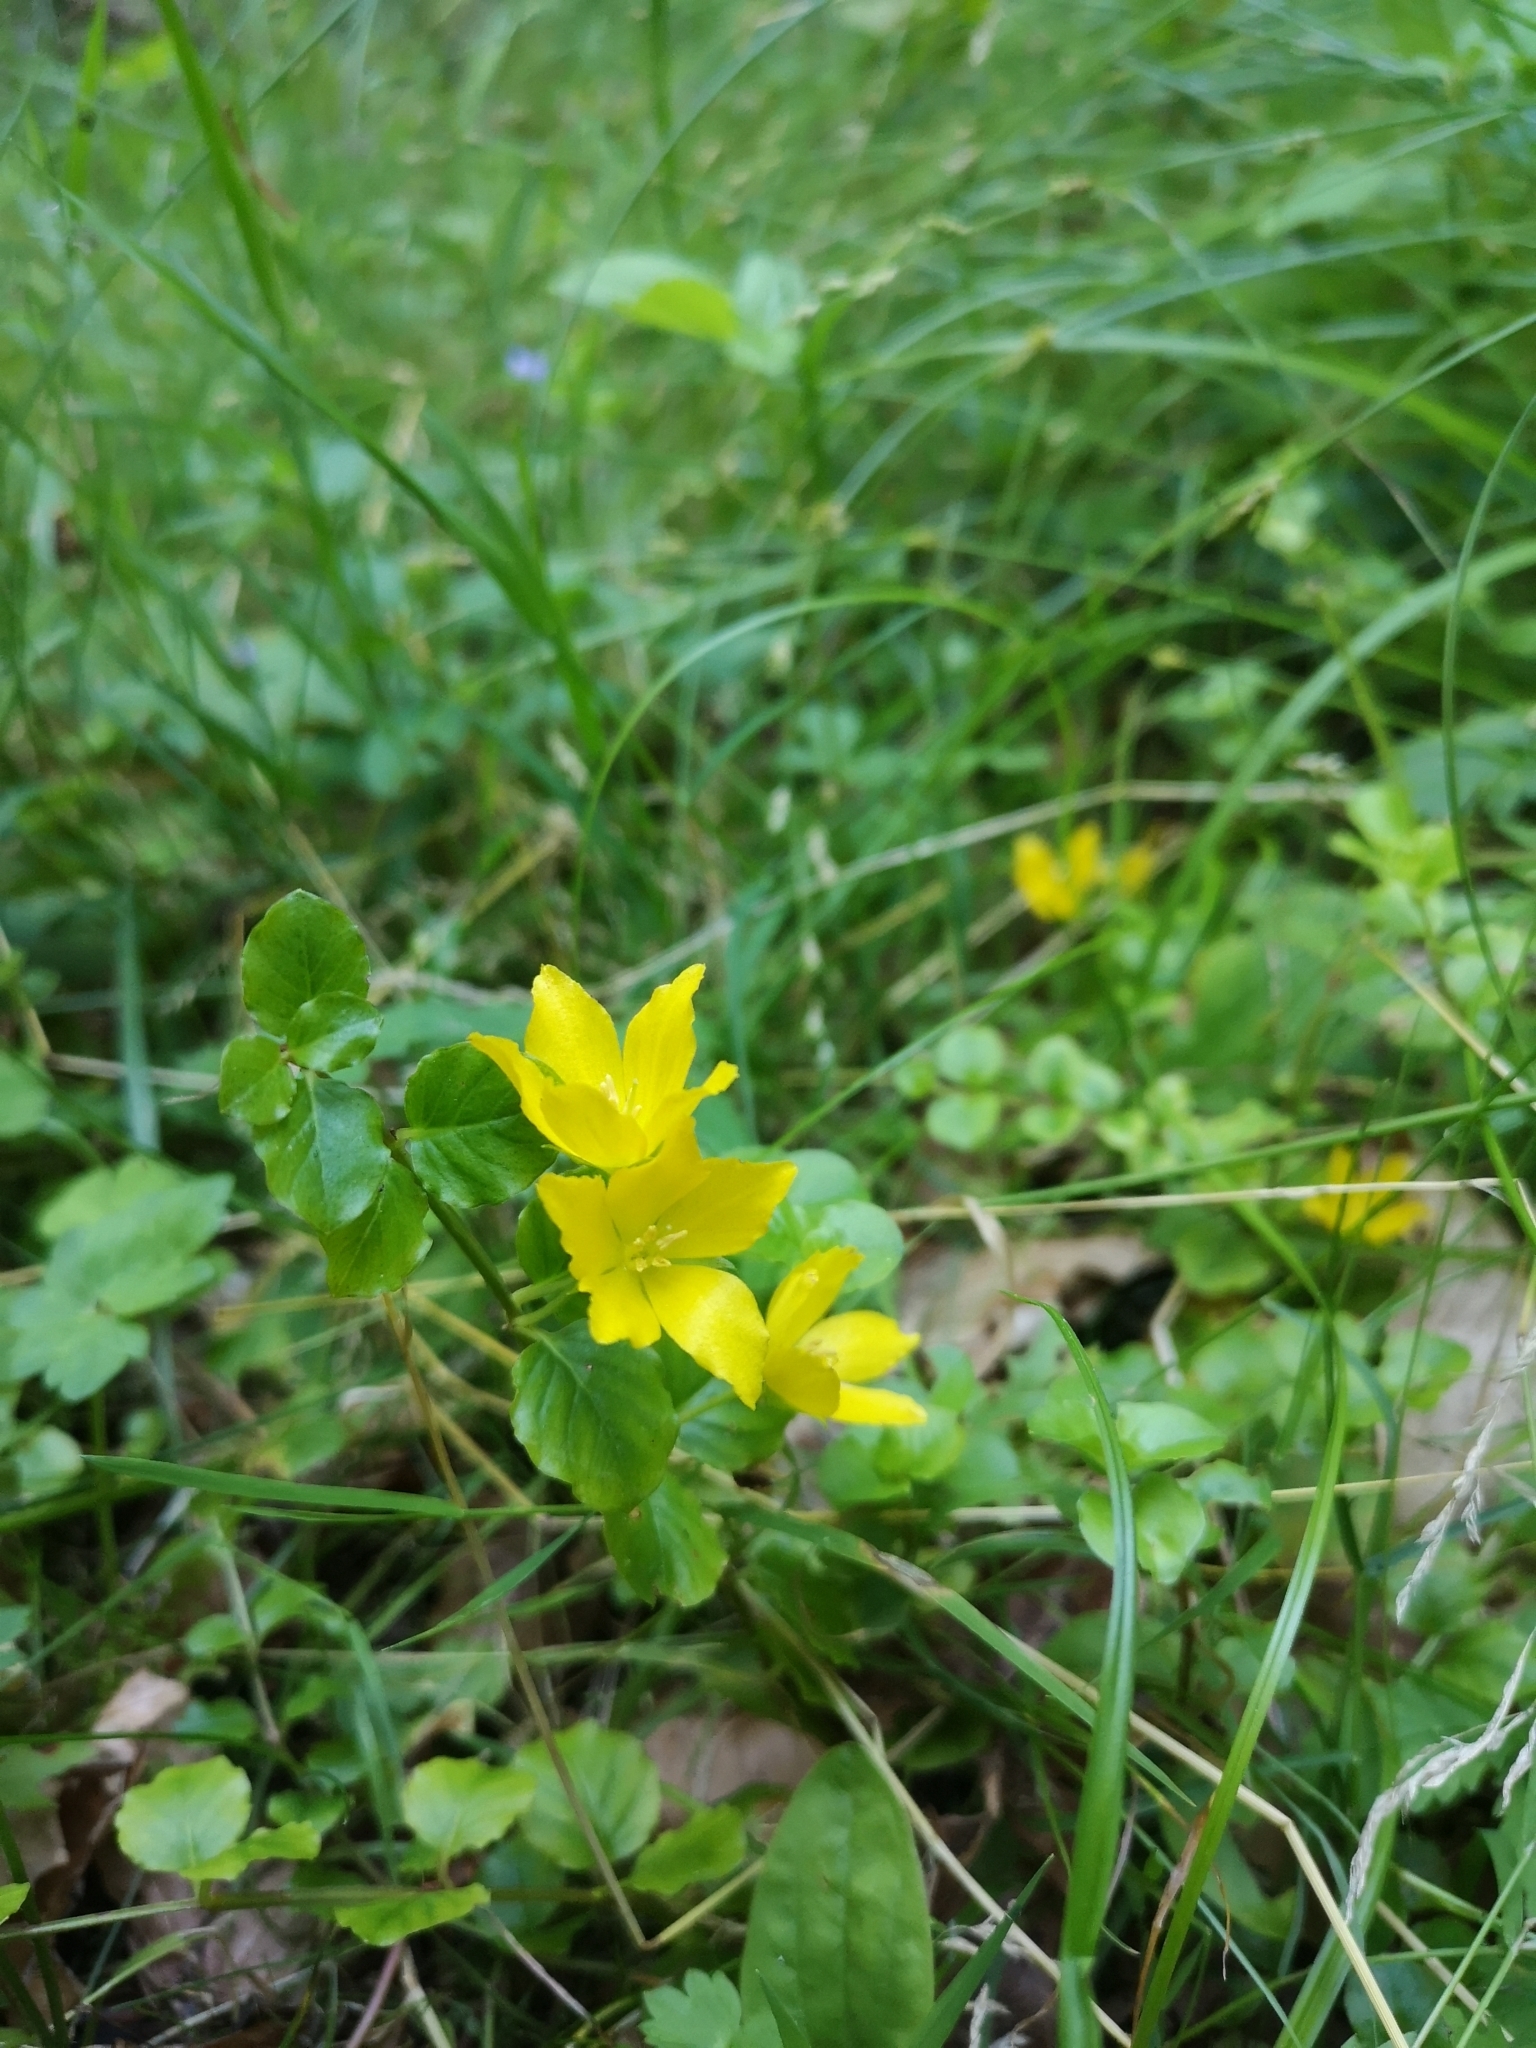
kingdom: Plantae
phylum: Tracheophyta
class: Magnoliopsida
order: Ericales
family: Primulaceae
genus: Lysimachia
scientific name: Lysimachia nummularia
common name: Moneywort
